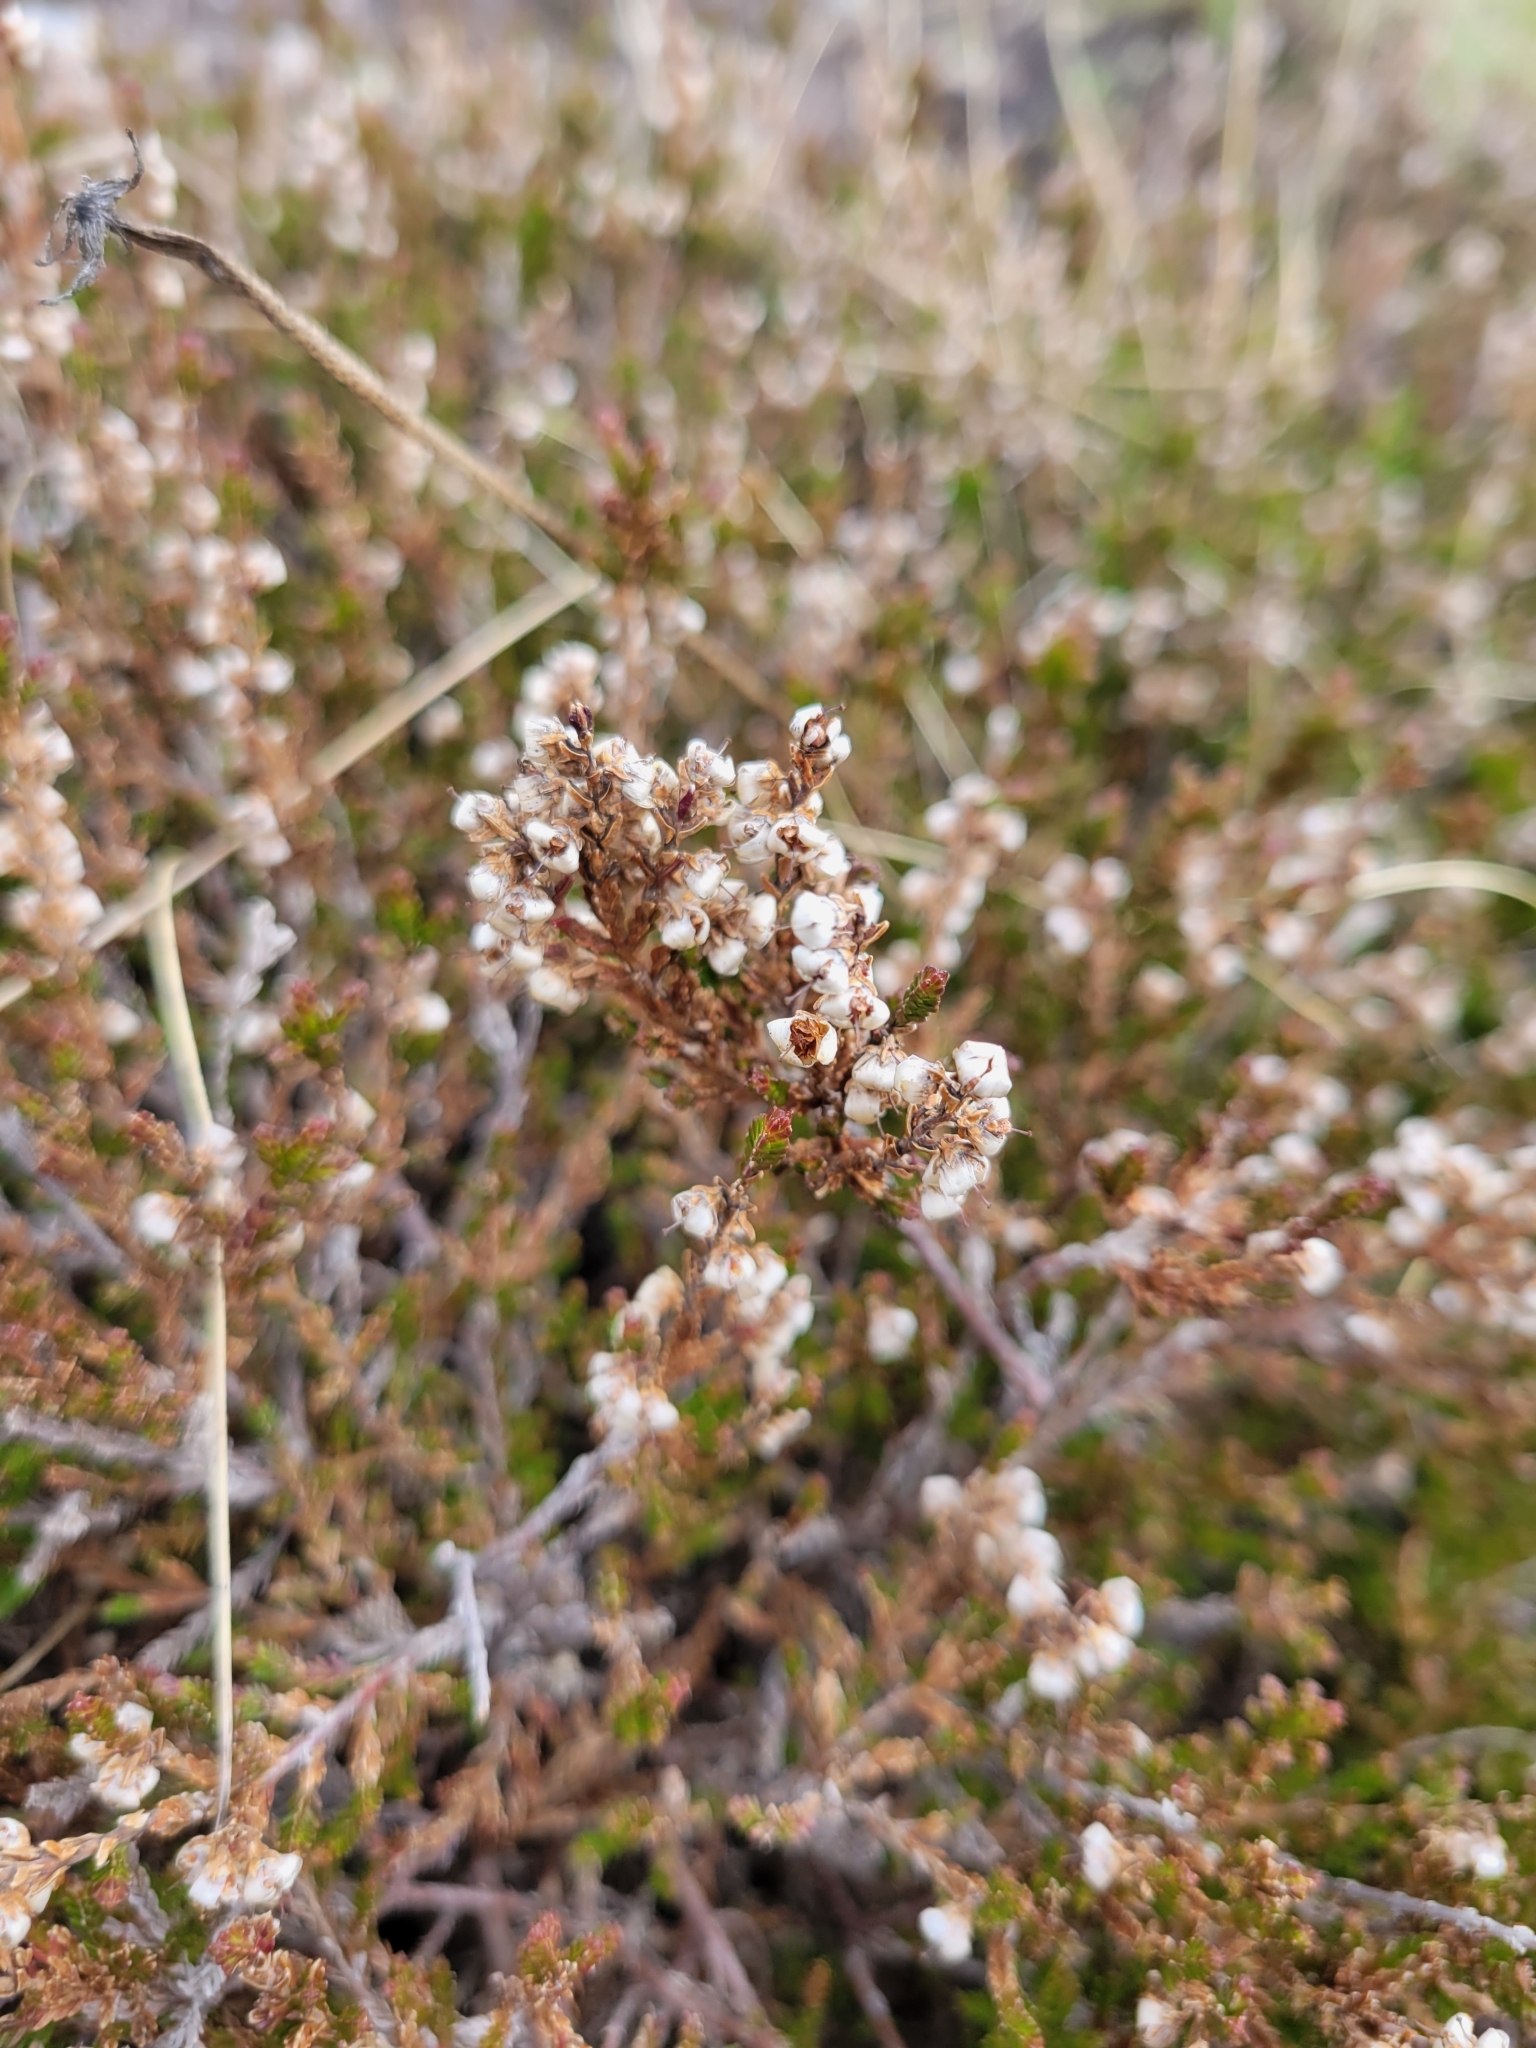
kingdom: Plantae
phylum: Tracheophyta
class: Magnoliopsida
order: Ericales
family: Ericaceae
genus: Calluna
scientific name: Calluna vulgaris
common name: Heather
